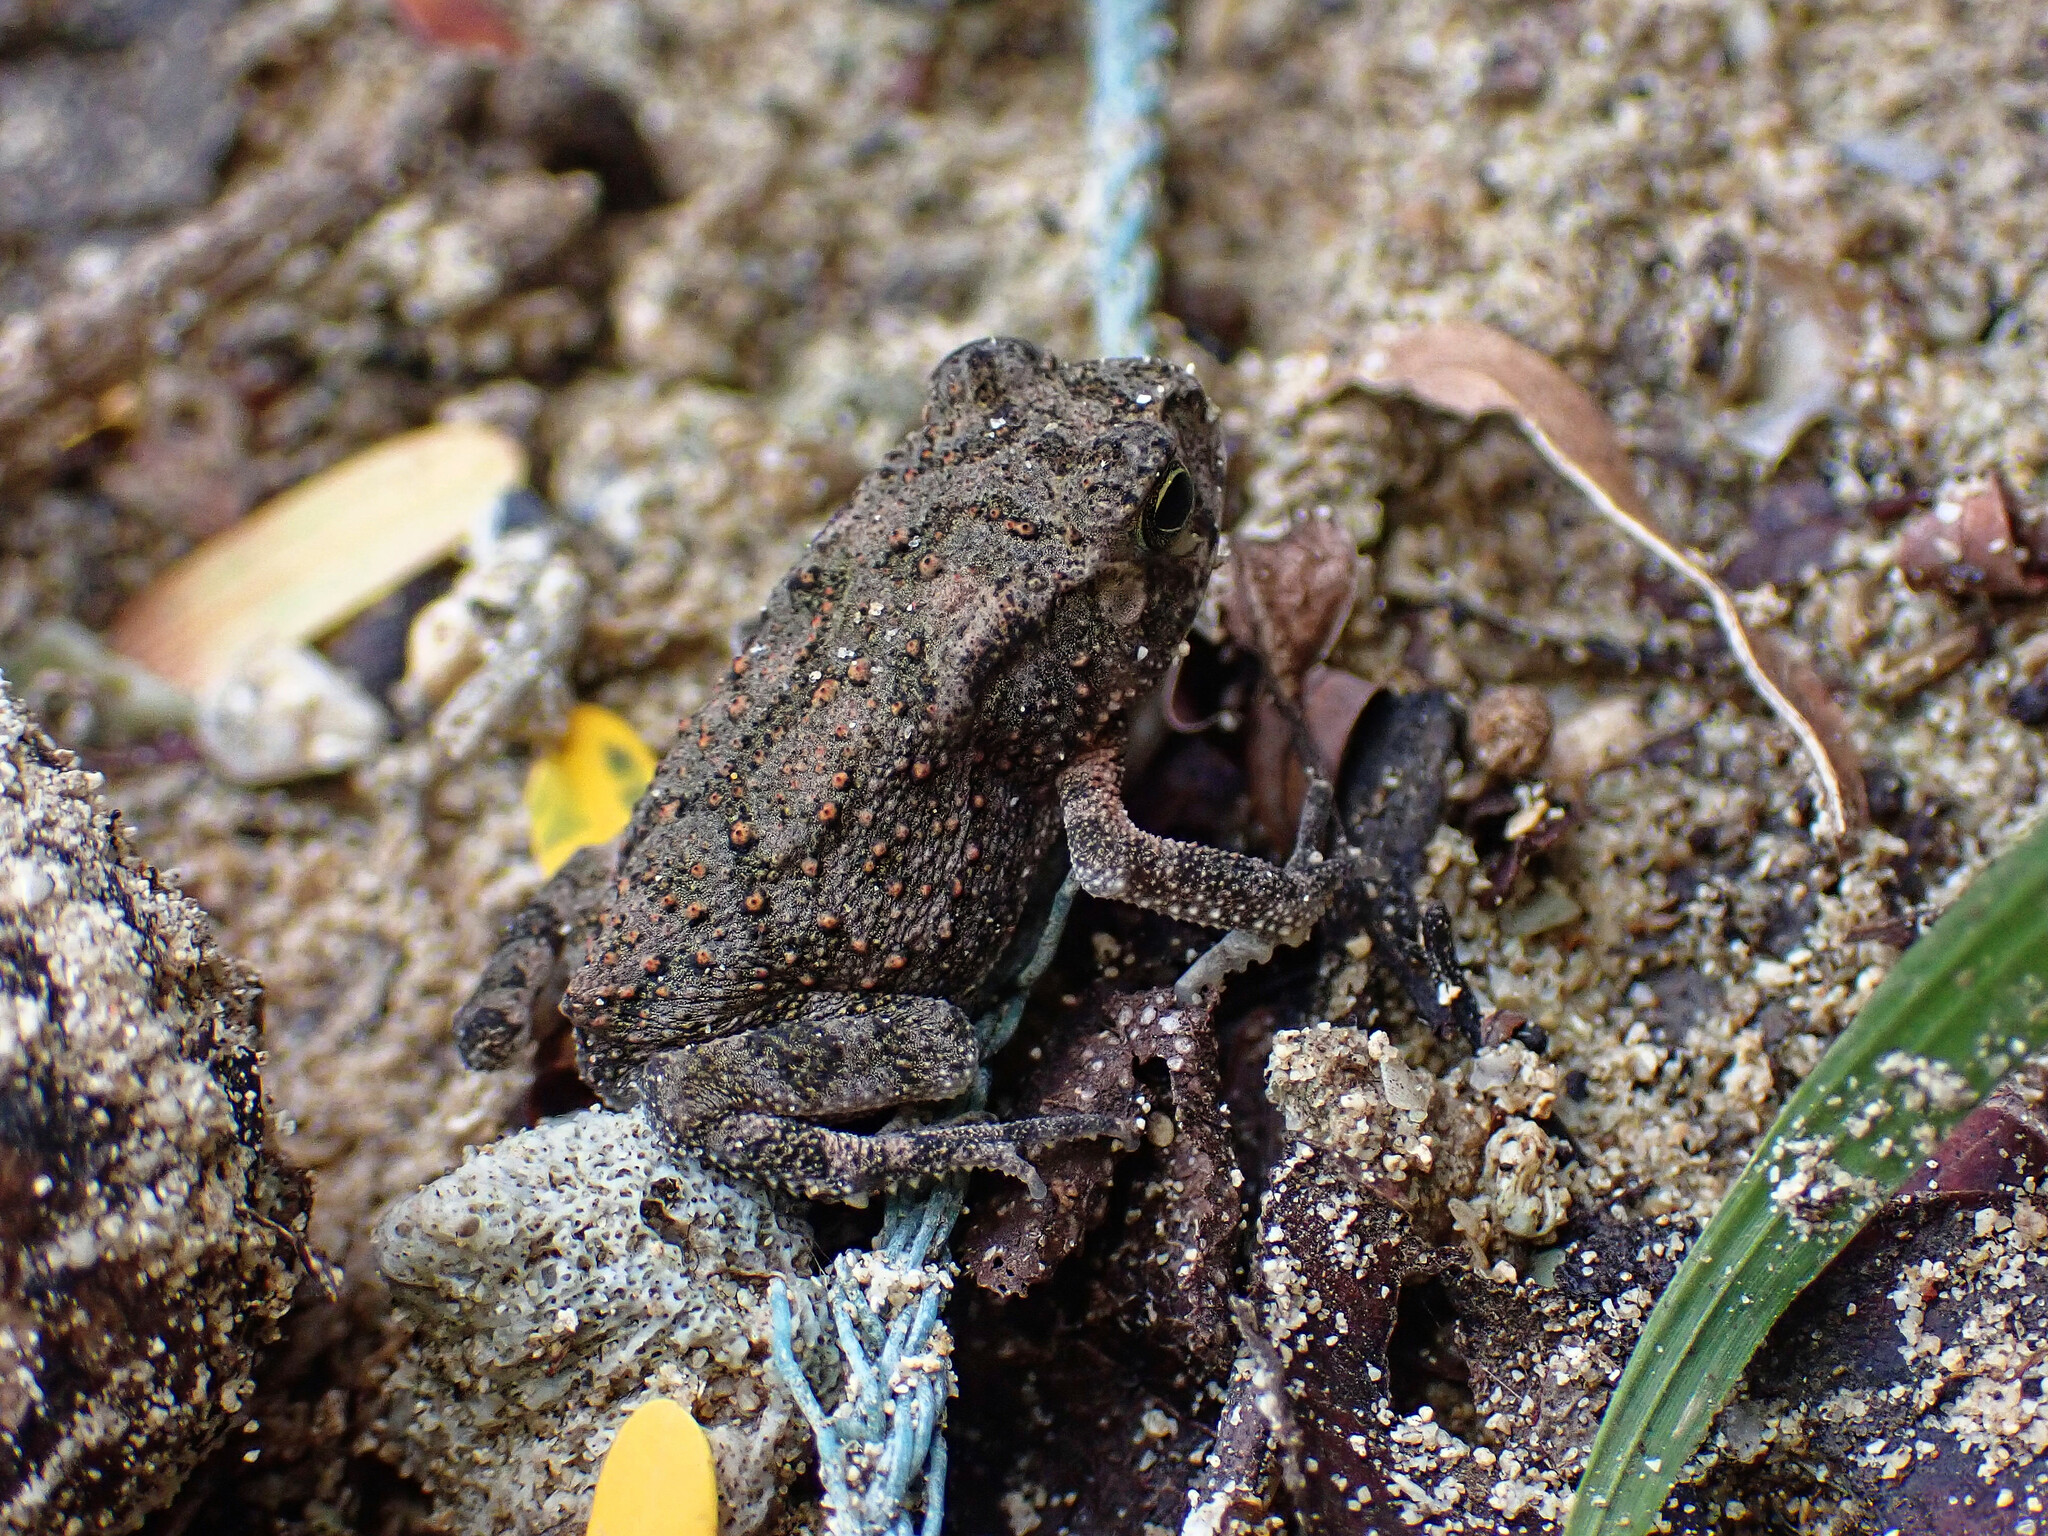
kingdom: Animalia
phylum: Chordata
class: Amphibia
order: Anura
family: Bufonidae
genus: Duttaphrynus
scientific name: Duttaphrynus melanostictus
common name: Common sunda toad
